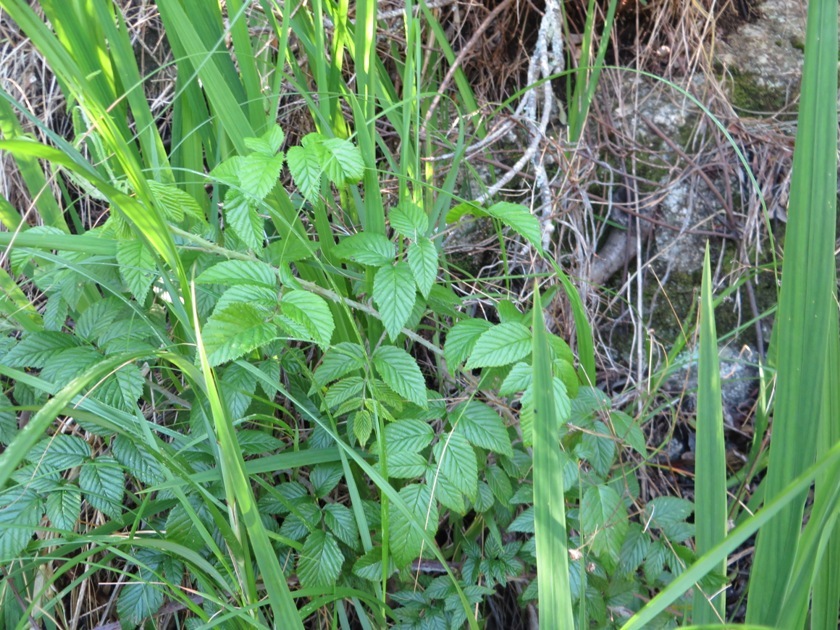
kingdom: Plantae
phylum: Tracheophyta
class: Magnoliopsida
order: Rosales
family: Rosaceae
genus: Rubus
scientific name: Rubus pinnatus
